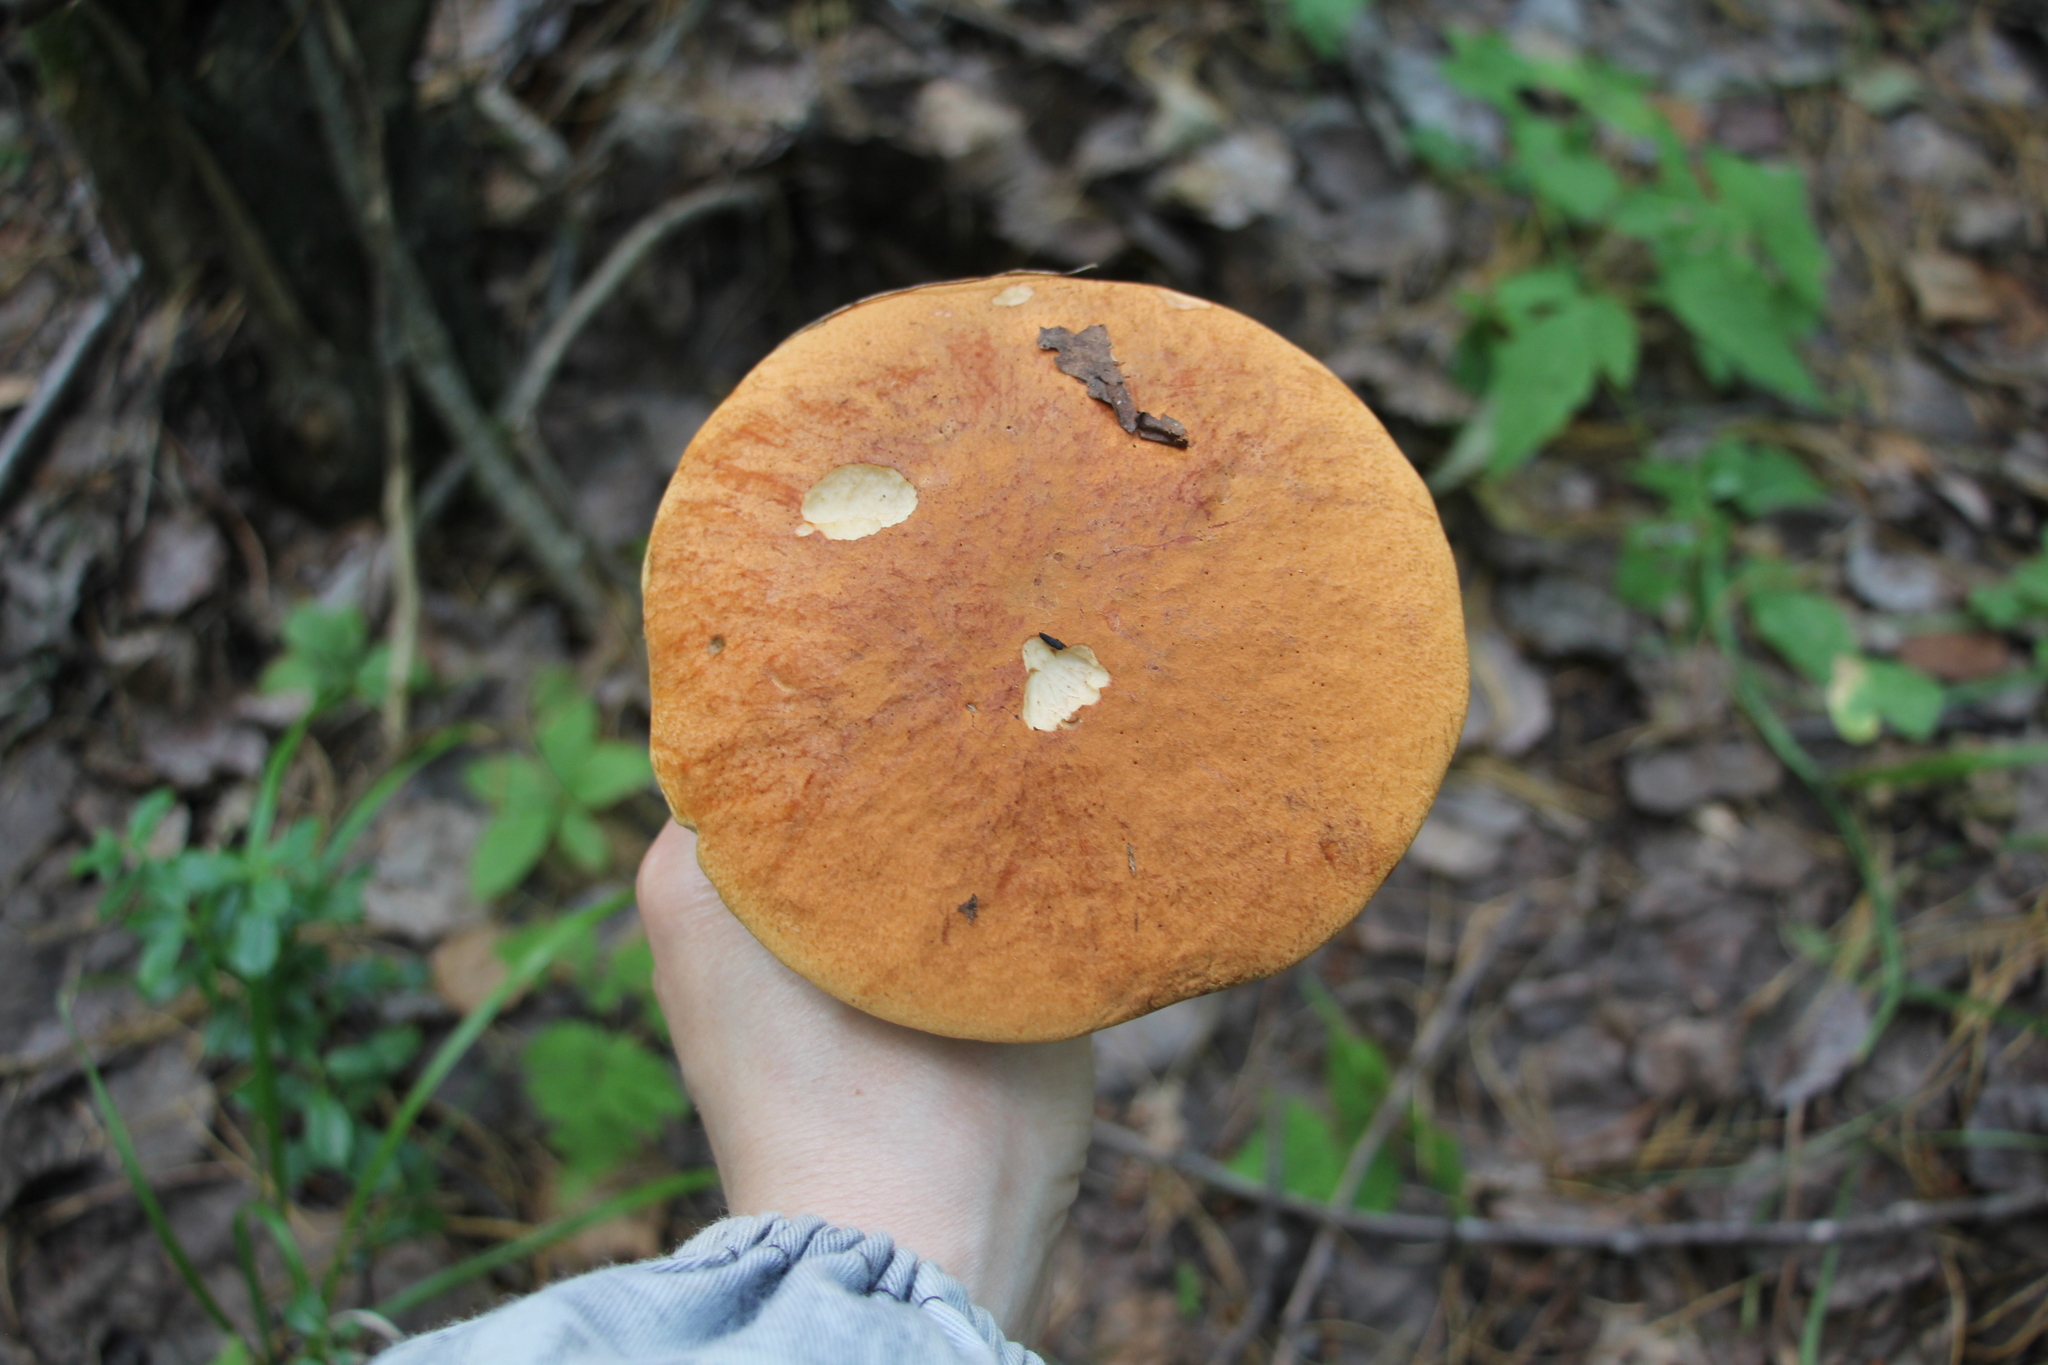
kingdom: Fungi
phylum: Basidiomycota
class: Agaricomycetes
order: Boletales
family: Boletaceae
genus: Leccinum
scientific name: Leccinum albostipitatum
